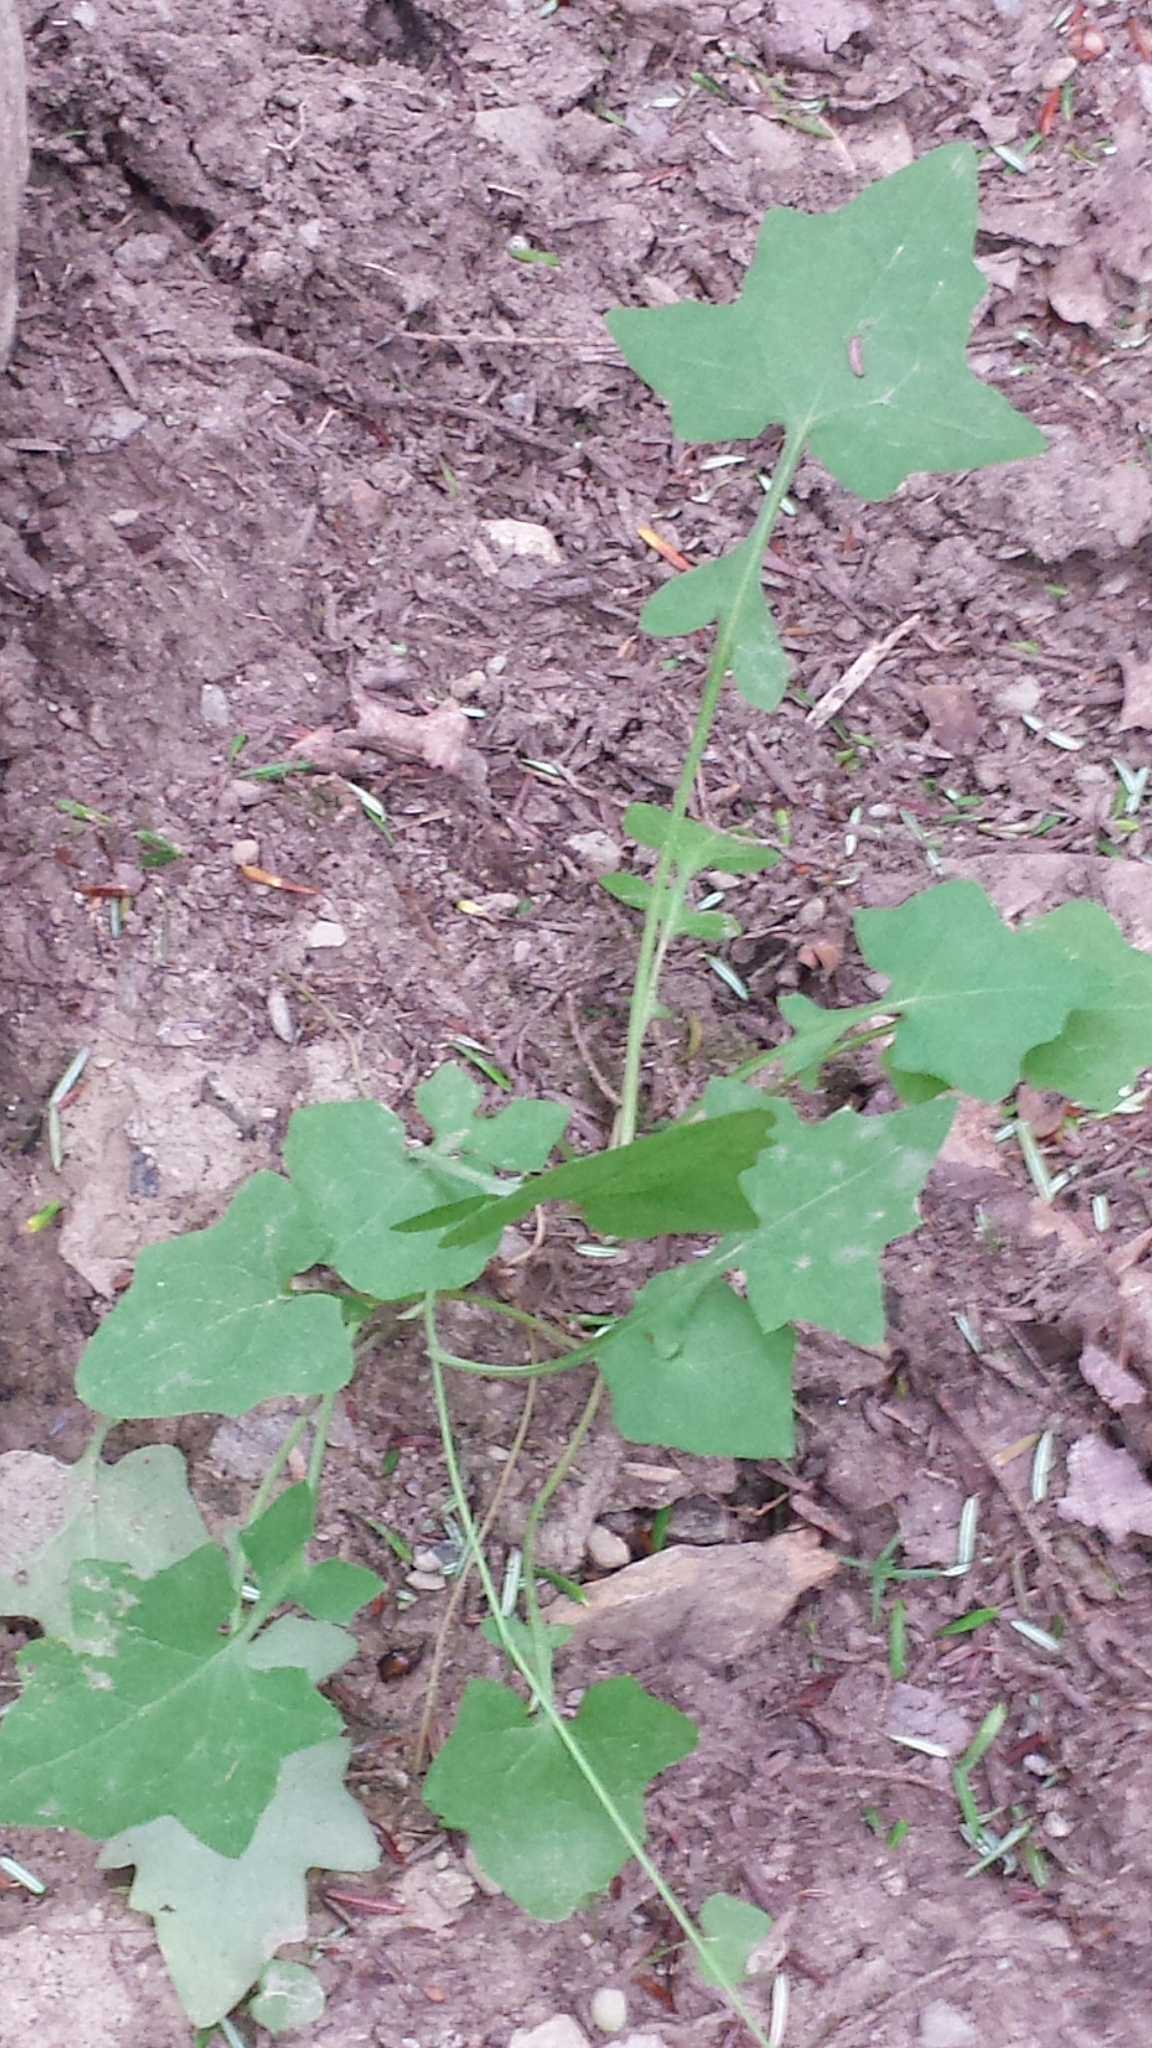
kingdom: Plantae
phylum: Tracheophyta
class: Magnoliopsida
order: Asterales
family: Asteraceae
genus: Mycelis
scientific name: Mycelis muralis
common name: Wall lettuce
